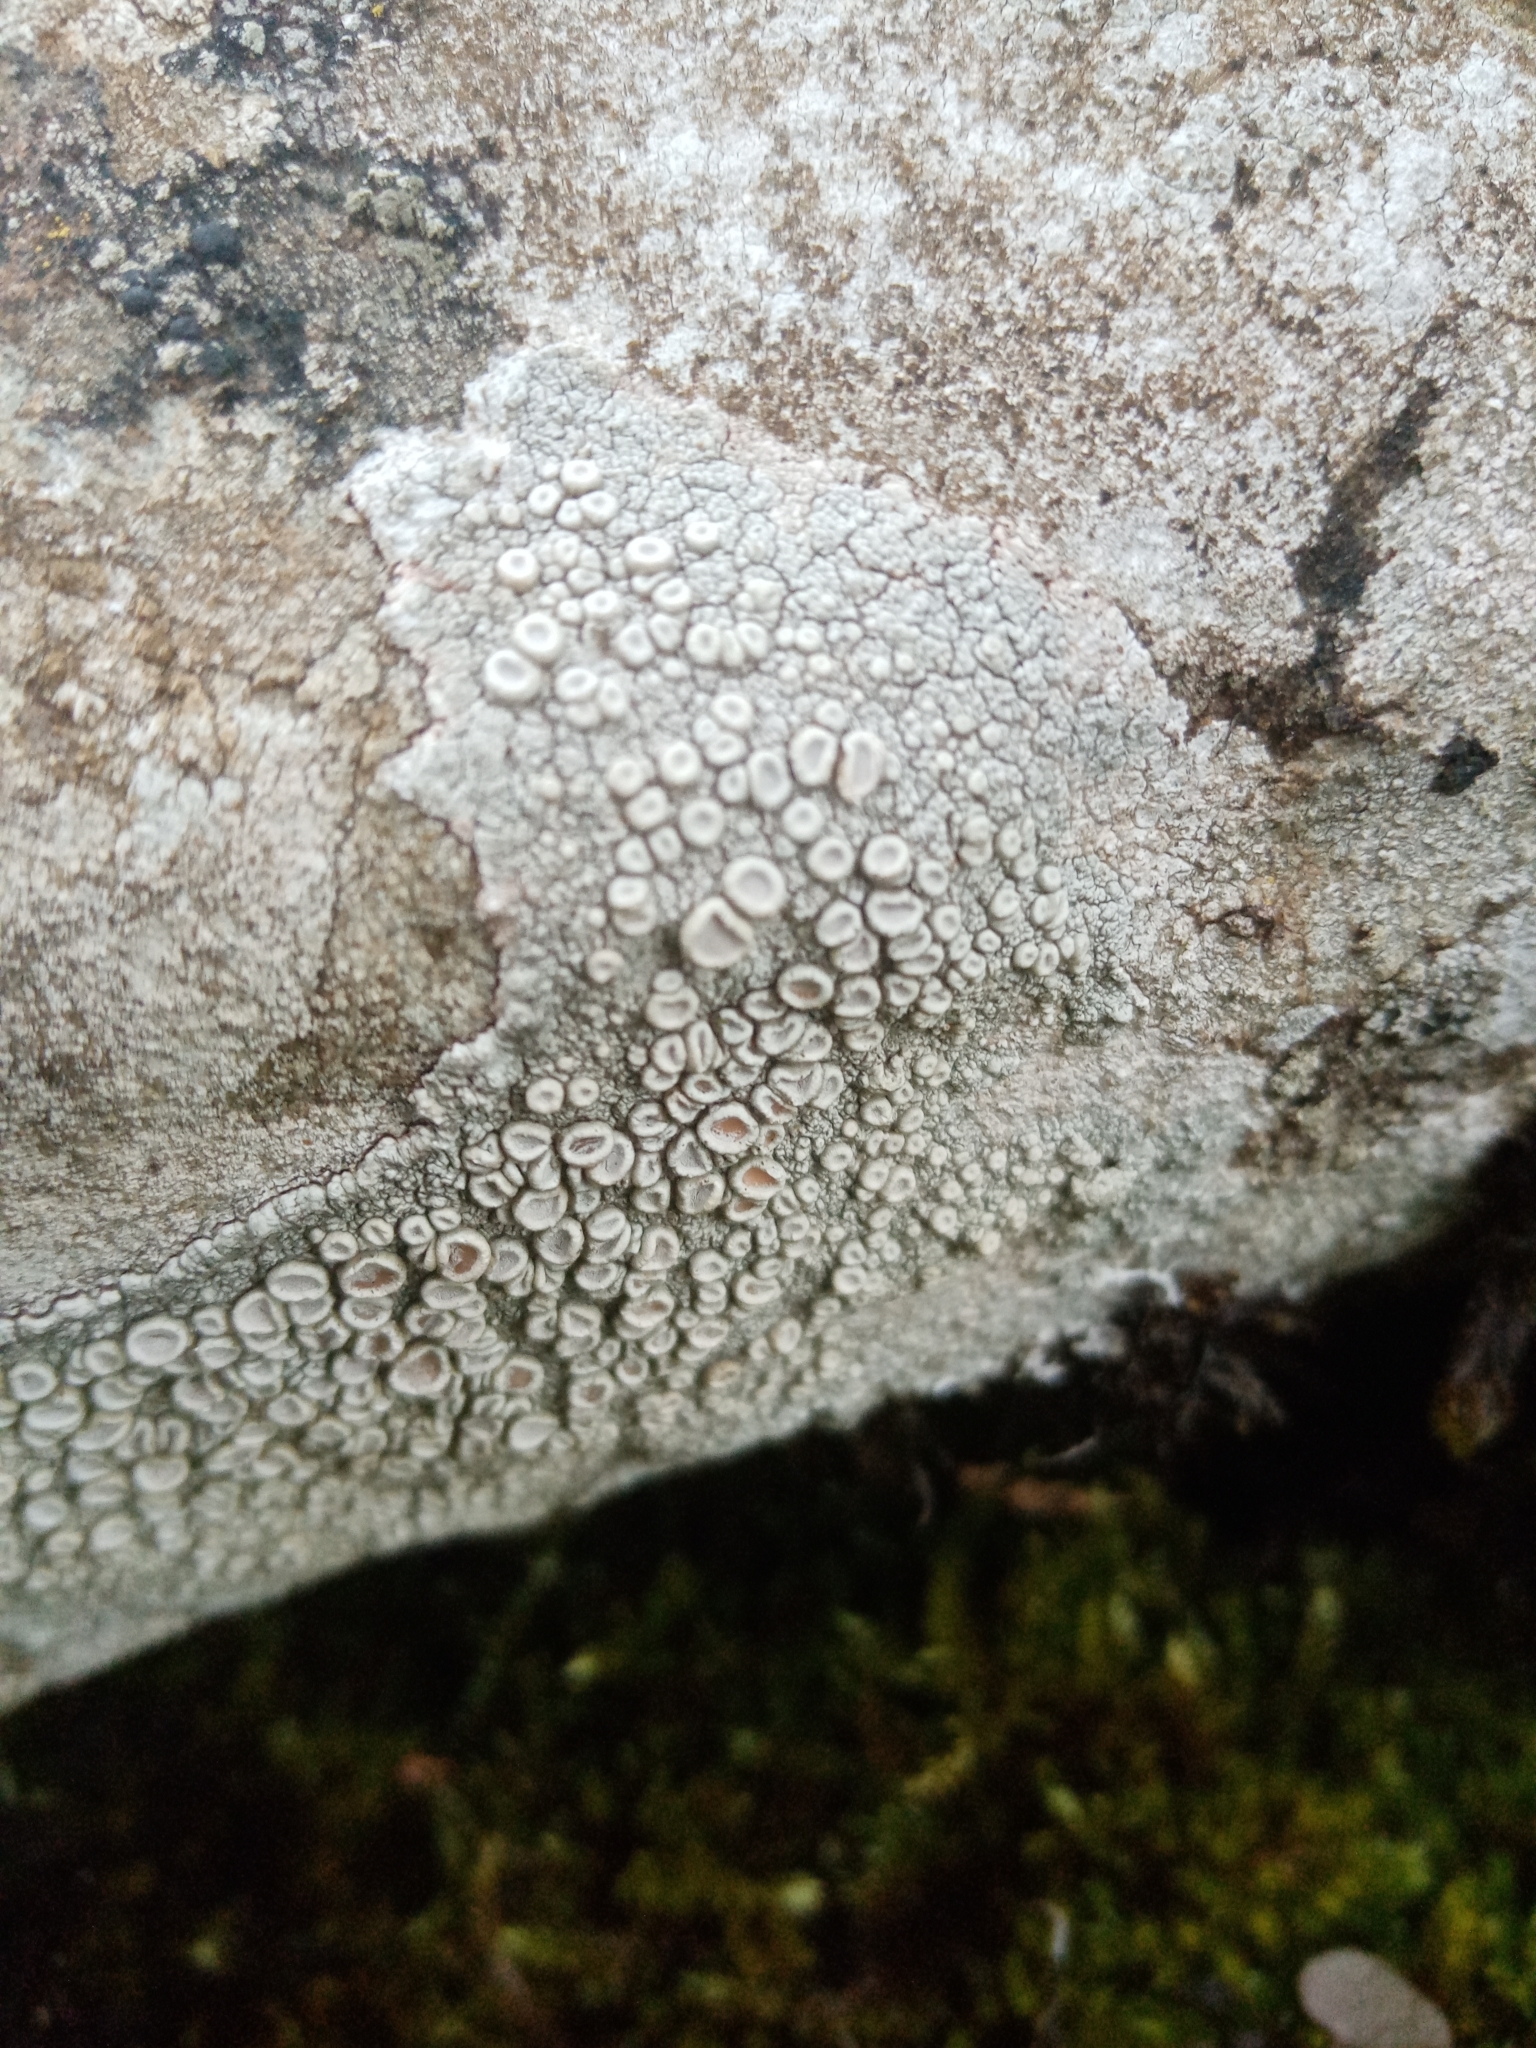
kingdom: Fungi
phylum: Ascomycota
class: Lecanoromycetes
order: Pertusariales
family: Ochrolechiaceae
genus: Ochrolechia
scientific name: Ochrolechia parella
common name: Crab's eye lichen
